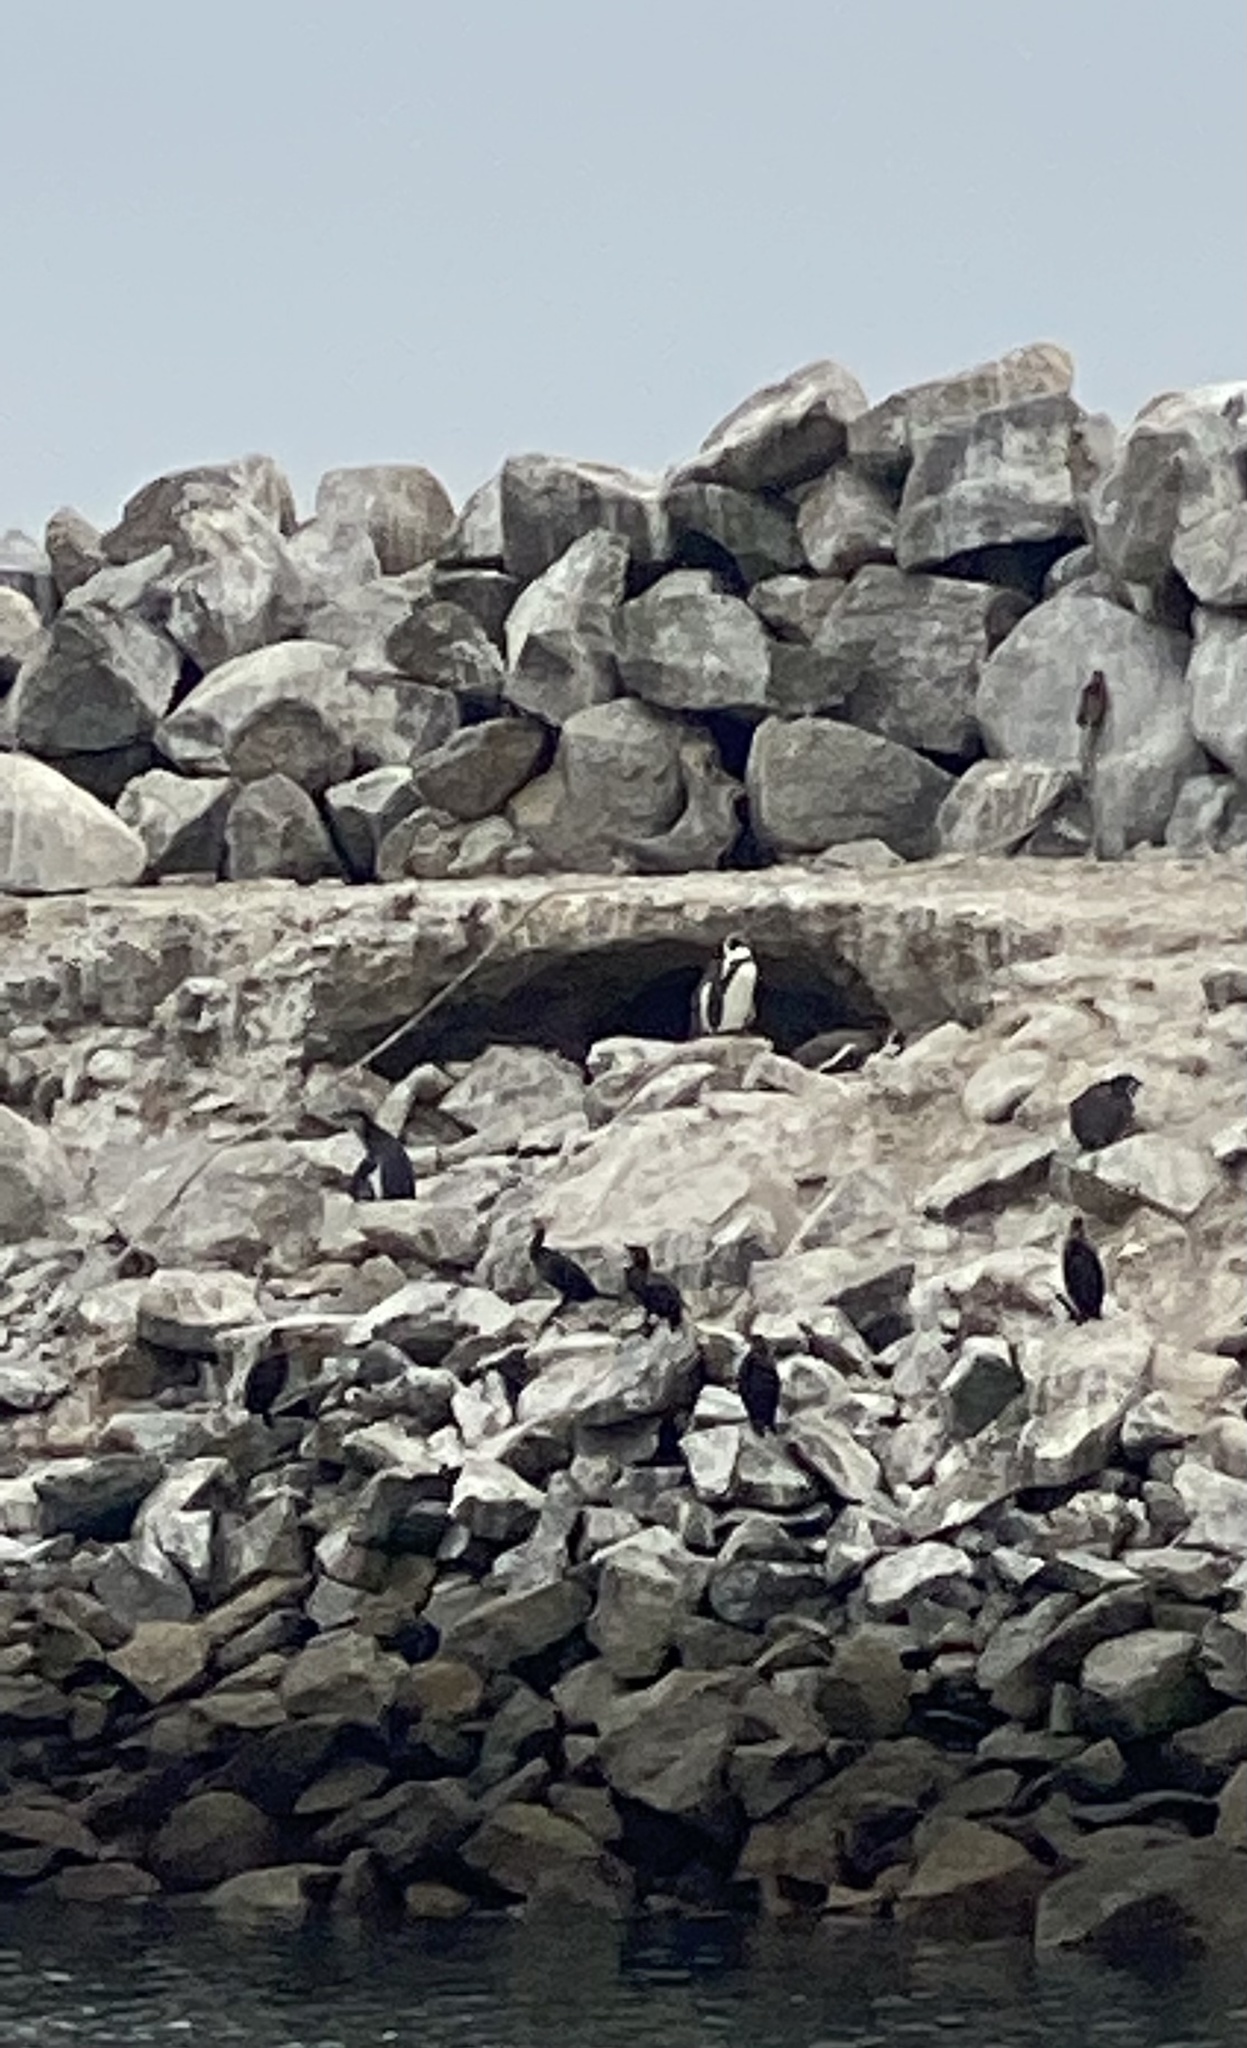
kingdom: Animalia
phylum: Chordata
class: Aves
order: Sphenisciformes
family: Spheniscidae
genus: Spheniscus
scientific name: Spheniscus humboldti
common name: Humboldt penguin
